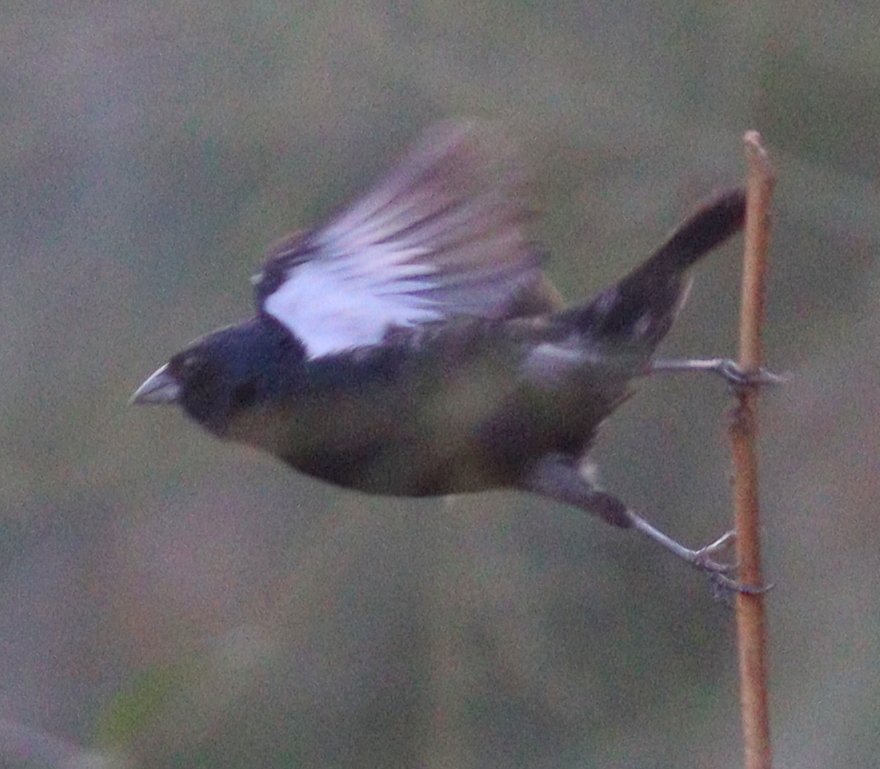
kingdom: Animalia
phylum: Chordata
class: Aves
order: Passeriformes
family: Thraupidae
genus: Volatinia
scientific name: Volatinia jacarina
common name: Blue-black grassquit
